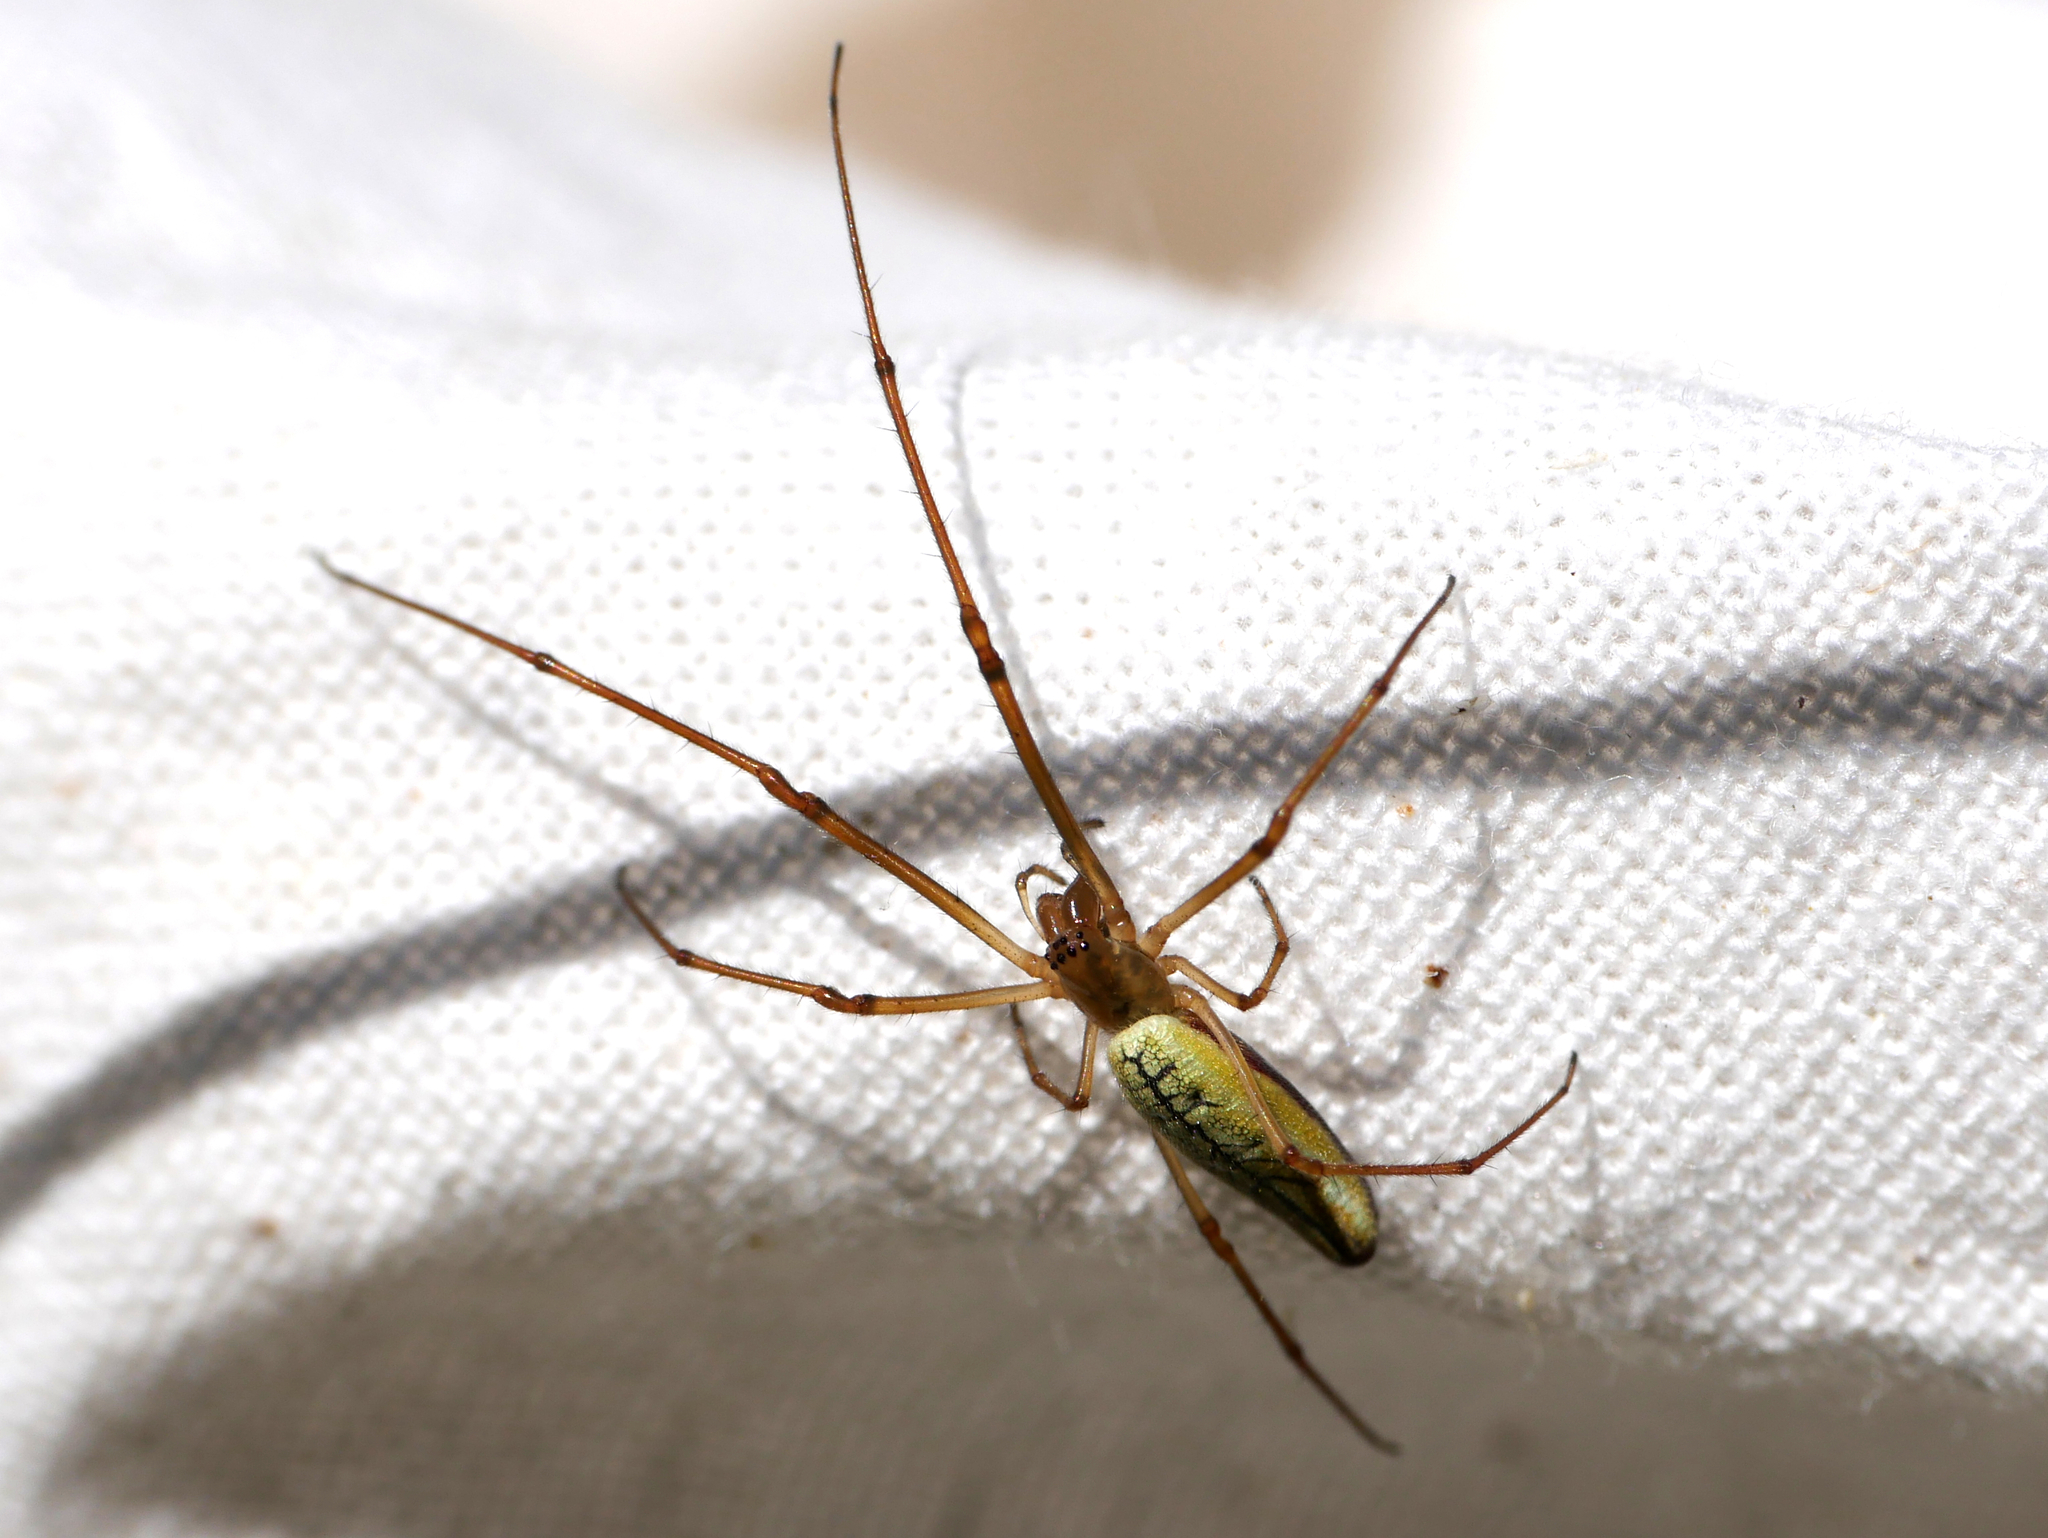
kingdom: Animalia
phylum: Arthropoda
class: Arachnida
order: Araneae
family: Tetragnathidae
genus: Tetragnatha
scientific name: Tetragnatha extensa
